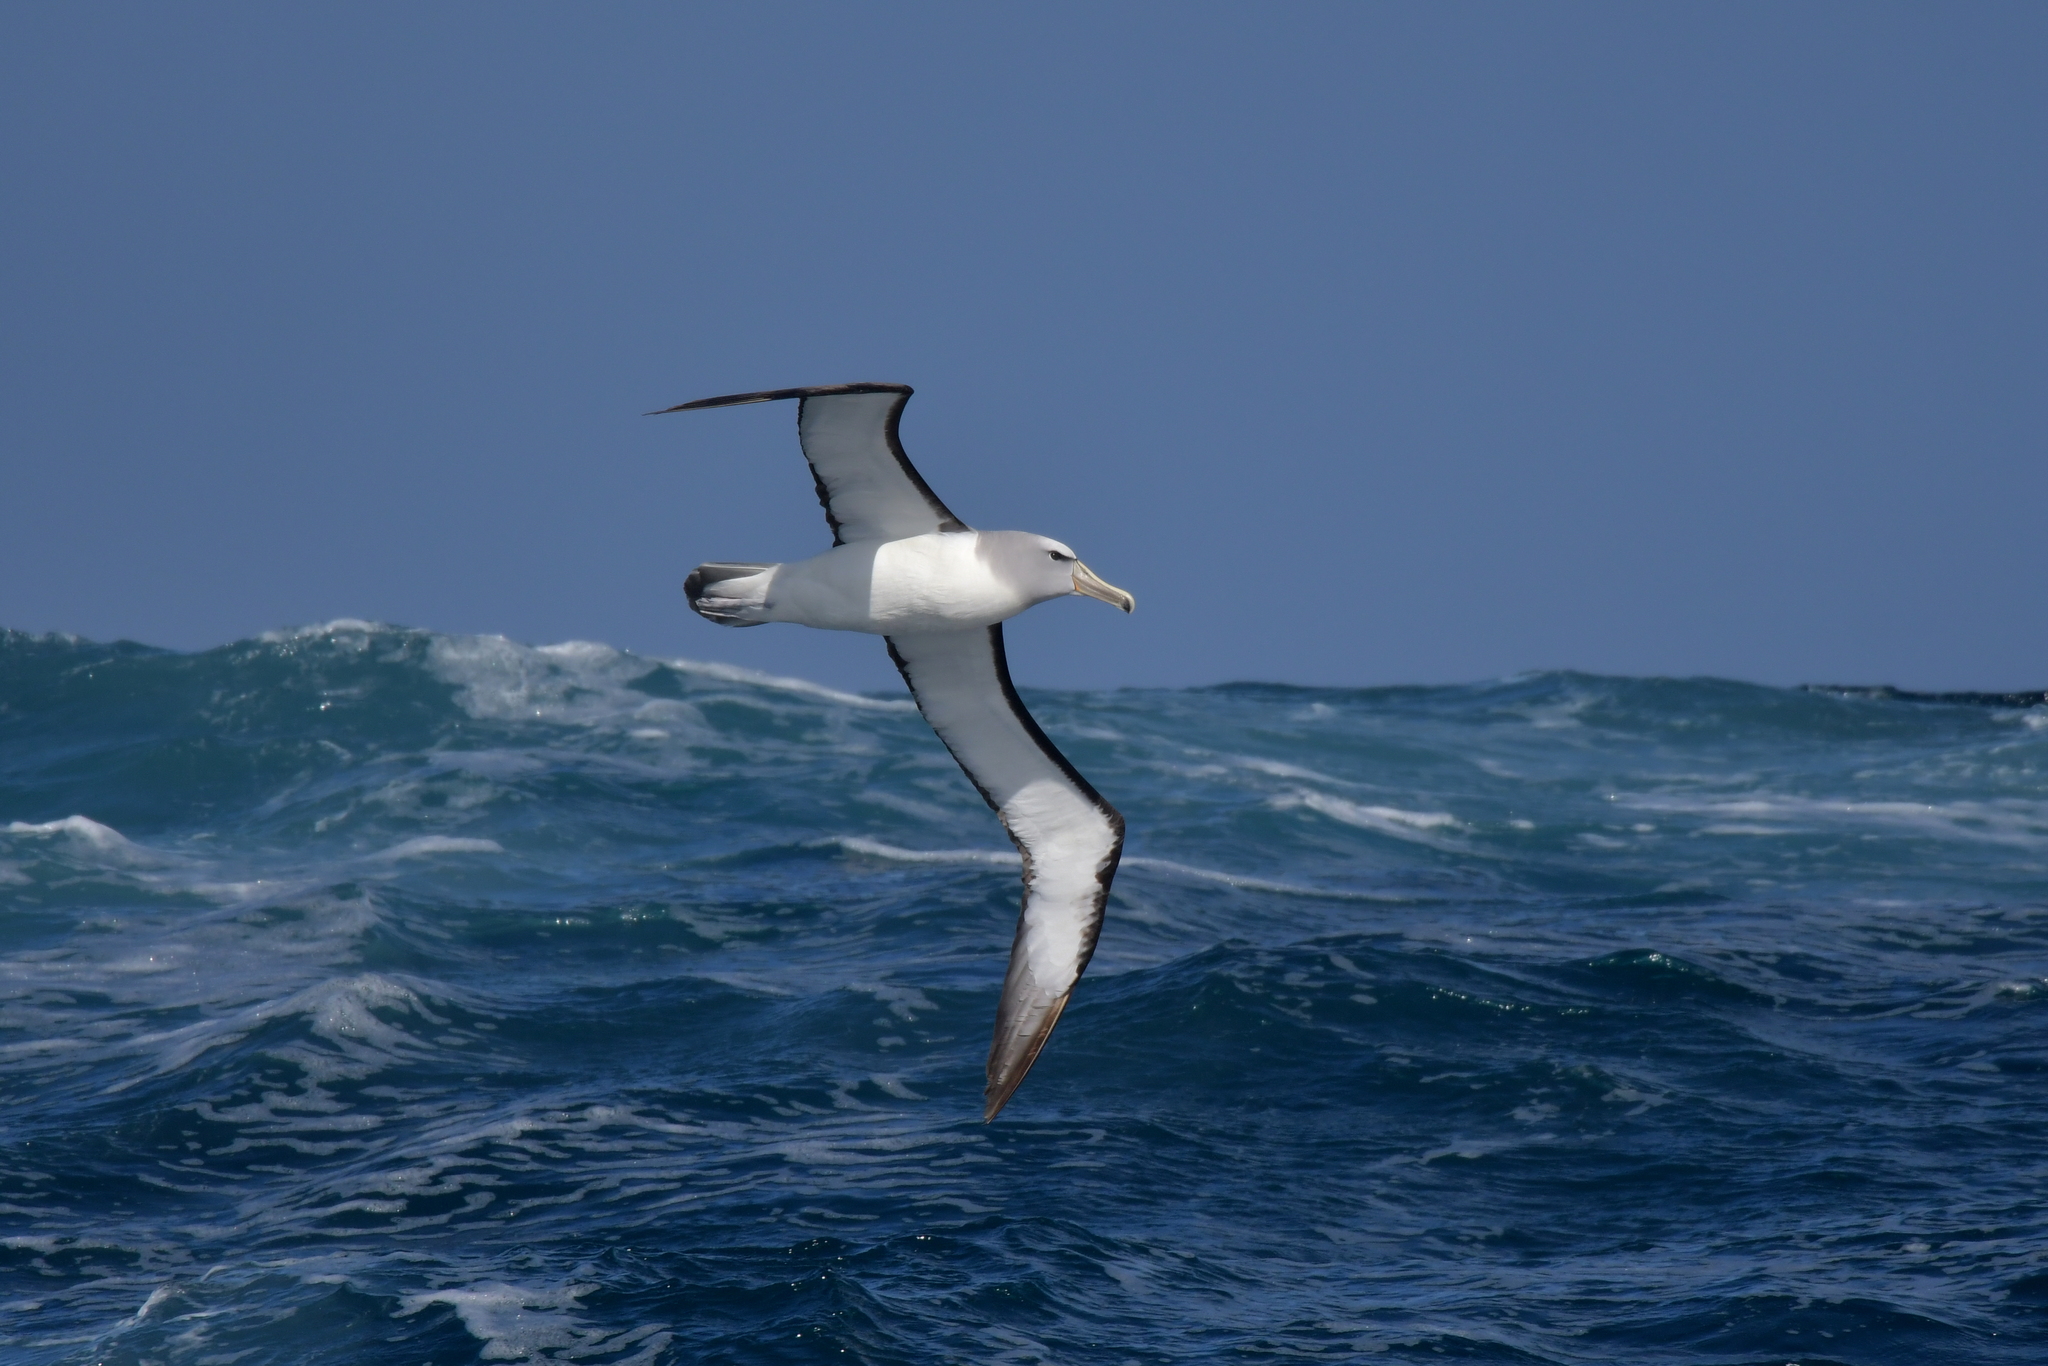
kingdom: Animalia
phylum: Chordata
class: Aves
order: Procellariiformes
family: Diomedeidae
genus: Thalassarche
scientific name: Thalassarche salvini
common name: Salvin's albatross
